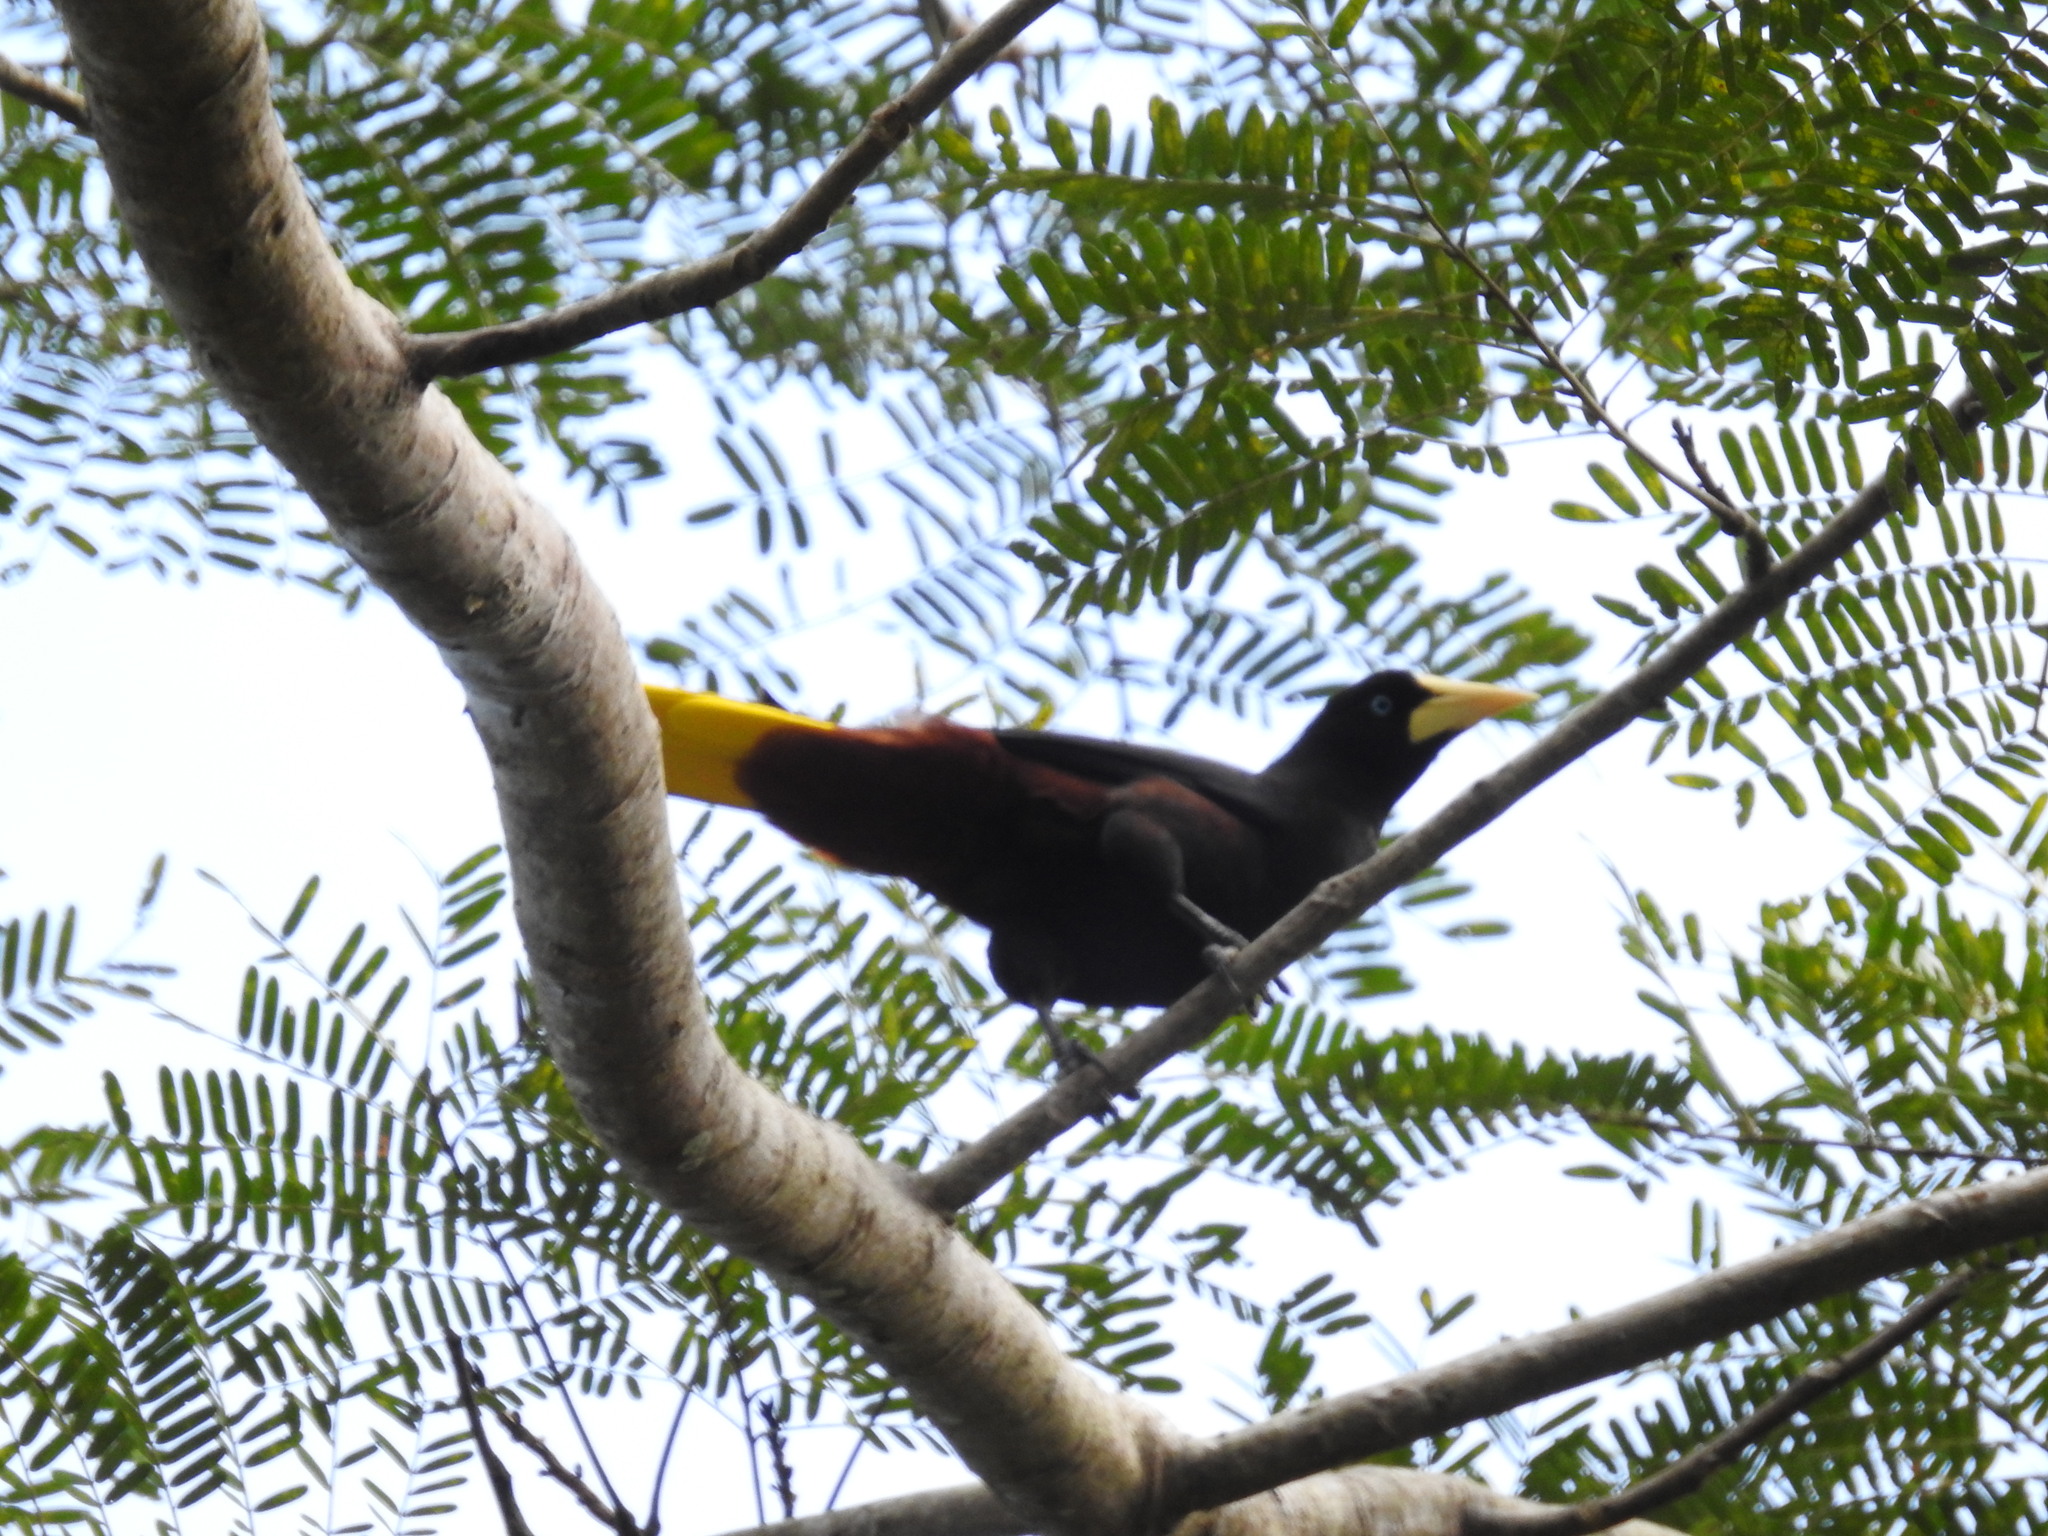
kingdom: Animalia
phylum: Chordata
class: Aves
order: Passeriformes
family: Icteridae
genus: Psarocolius
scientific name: Psarocolius decumanus
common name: Crested oropendola
